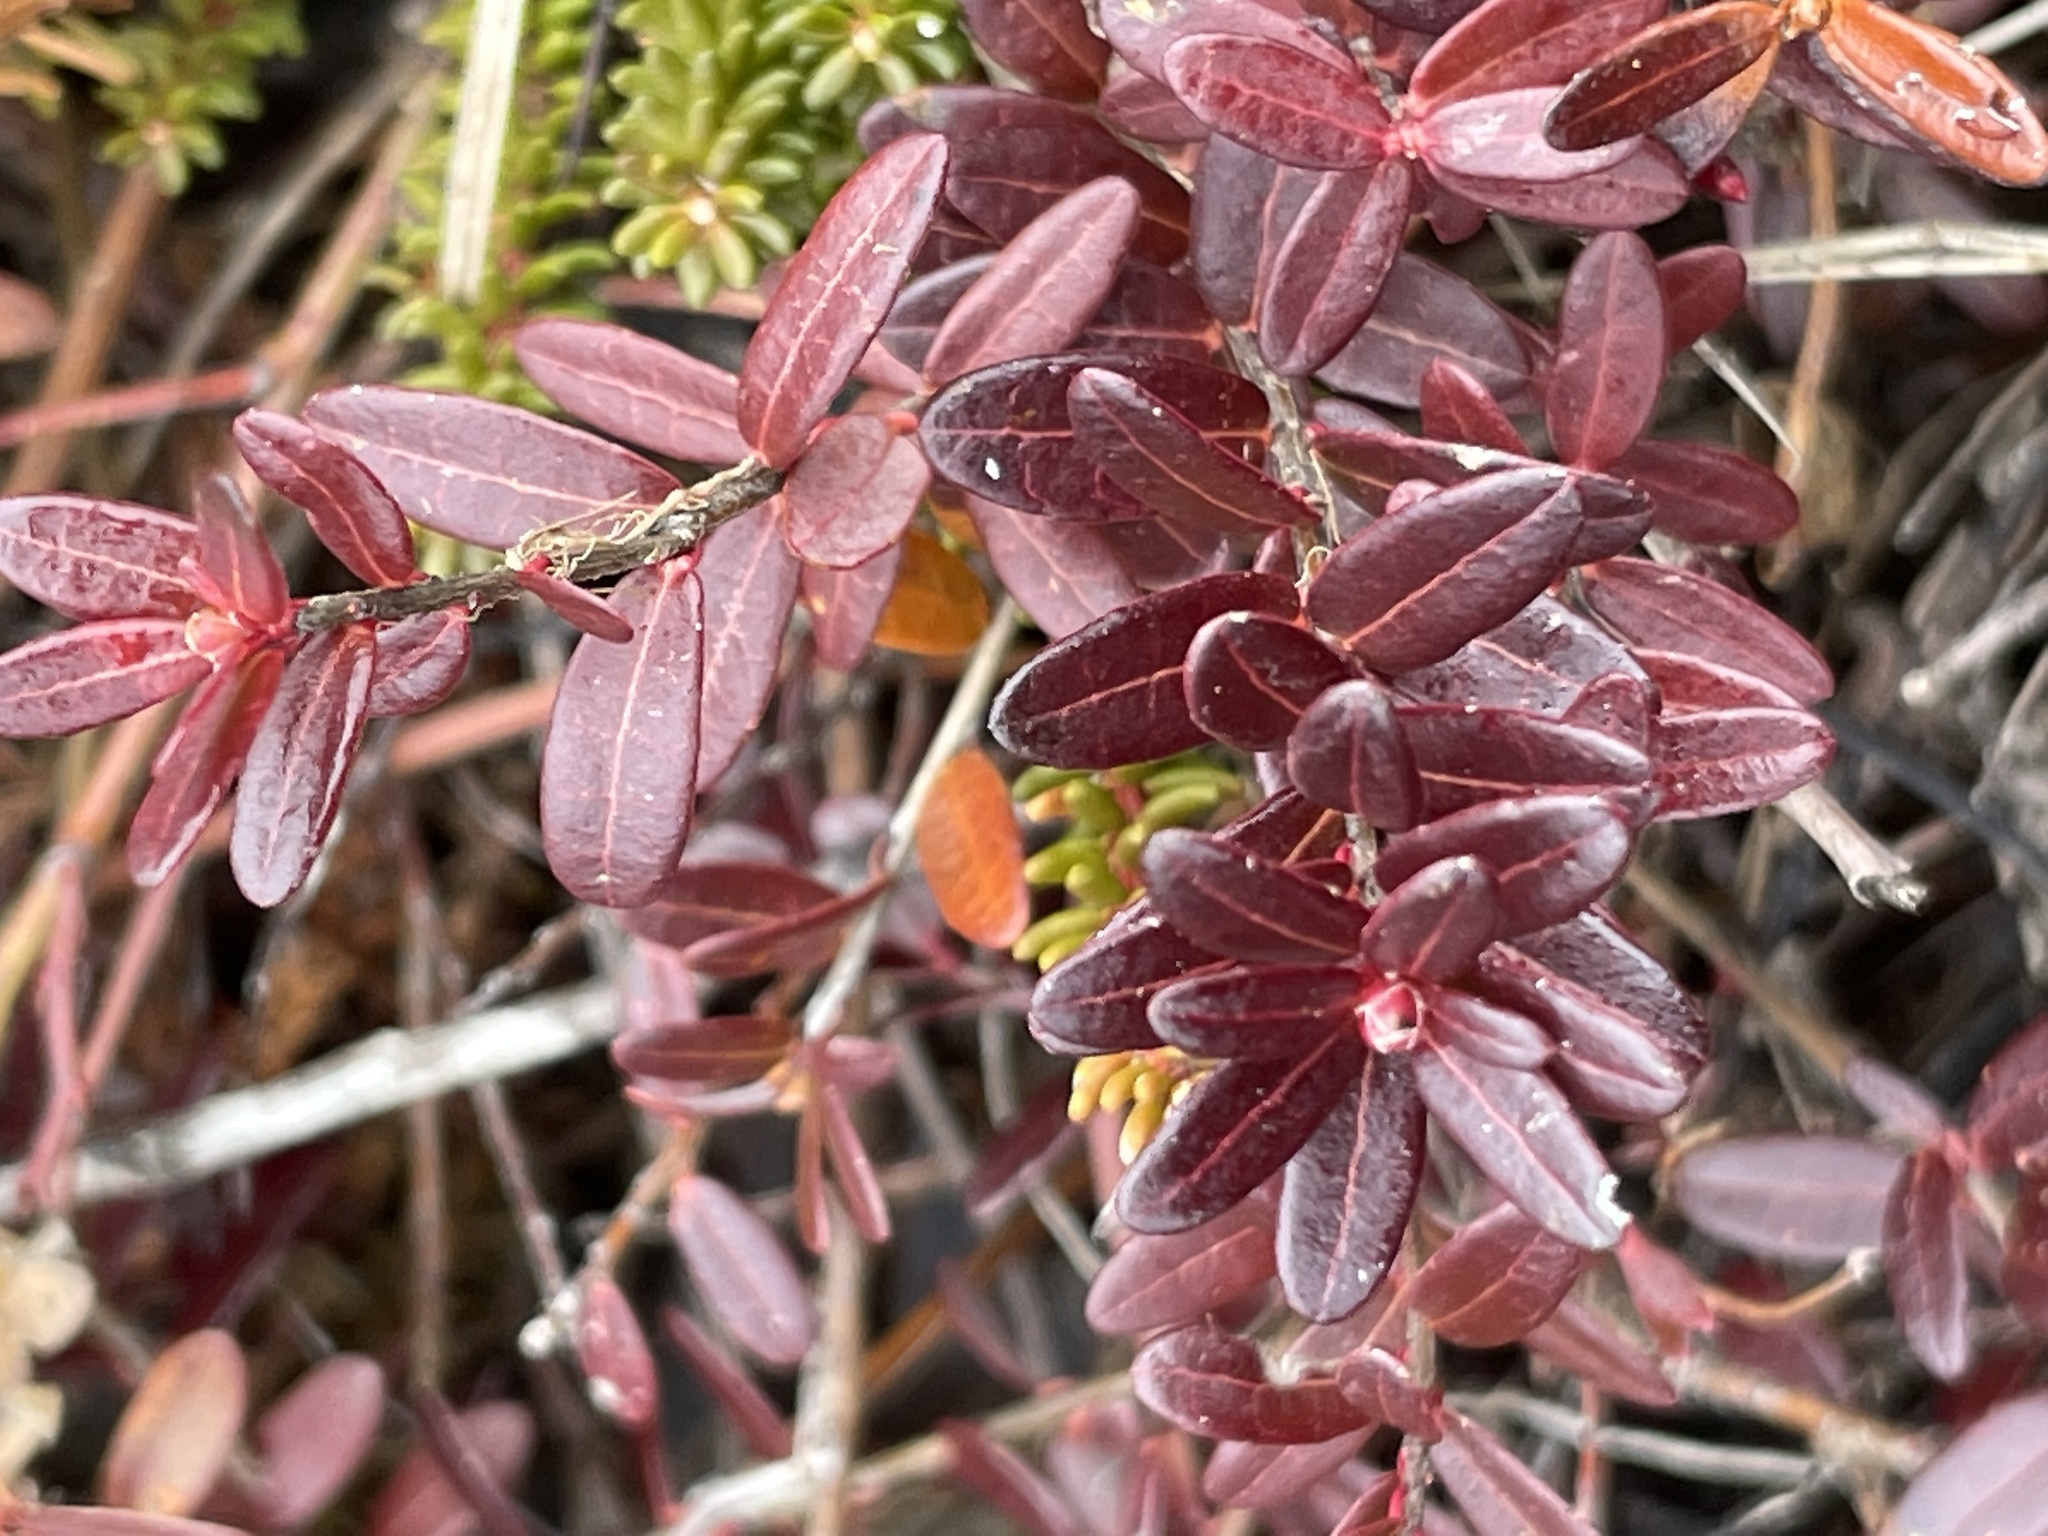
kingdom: Plantae
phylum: Tracheophyta
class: Magnoliopsida
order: Ericales
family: Ericaceae
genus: Vaccinium
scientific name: Vaccinium macrocarpon
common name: American cranberry
